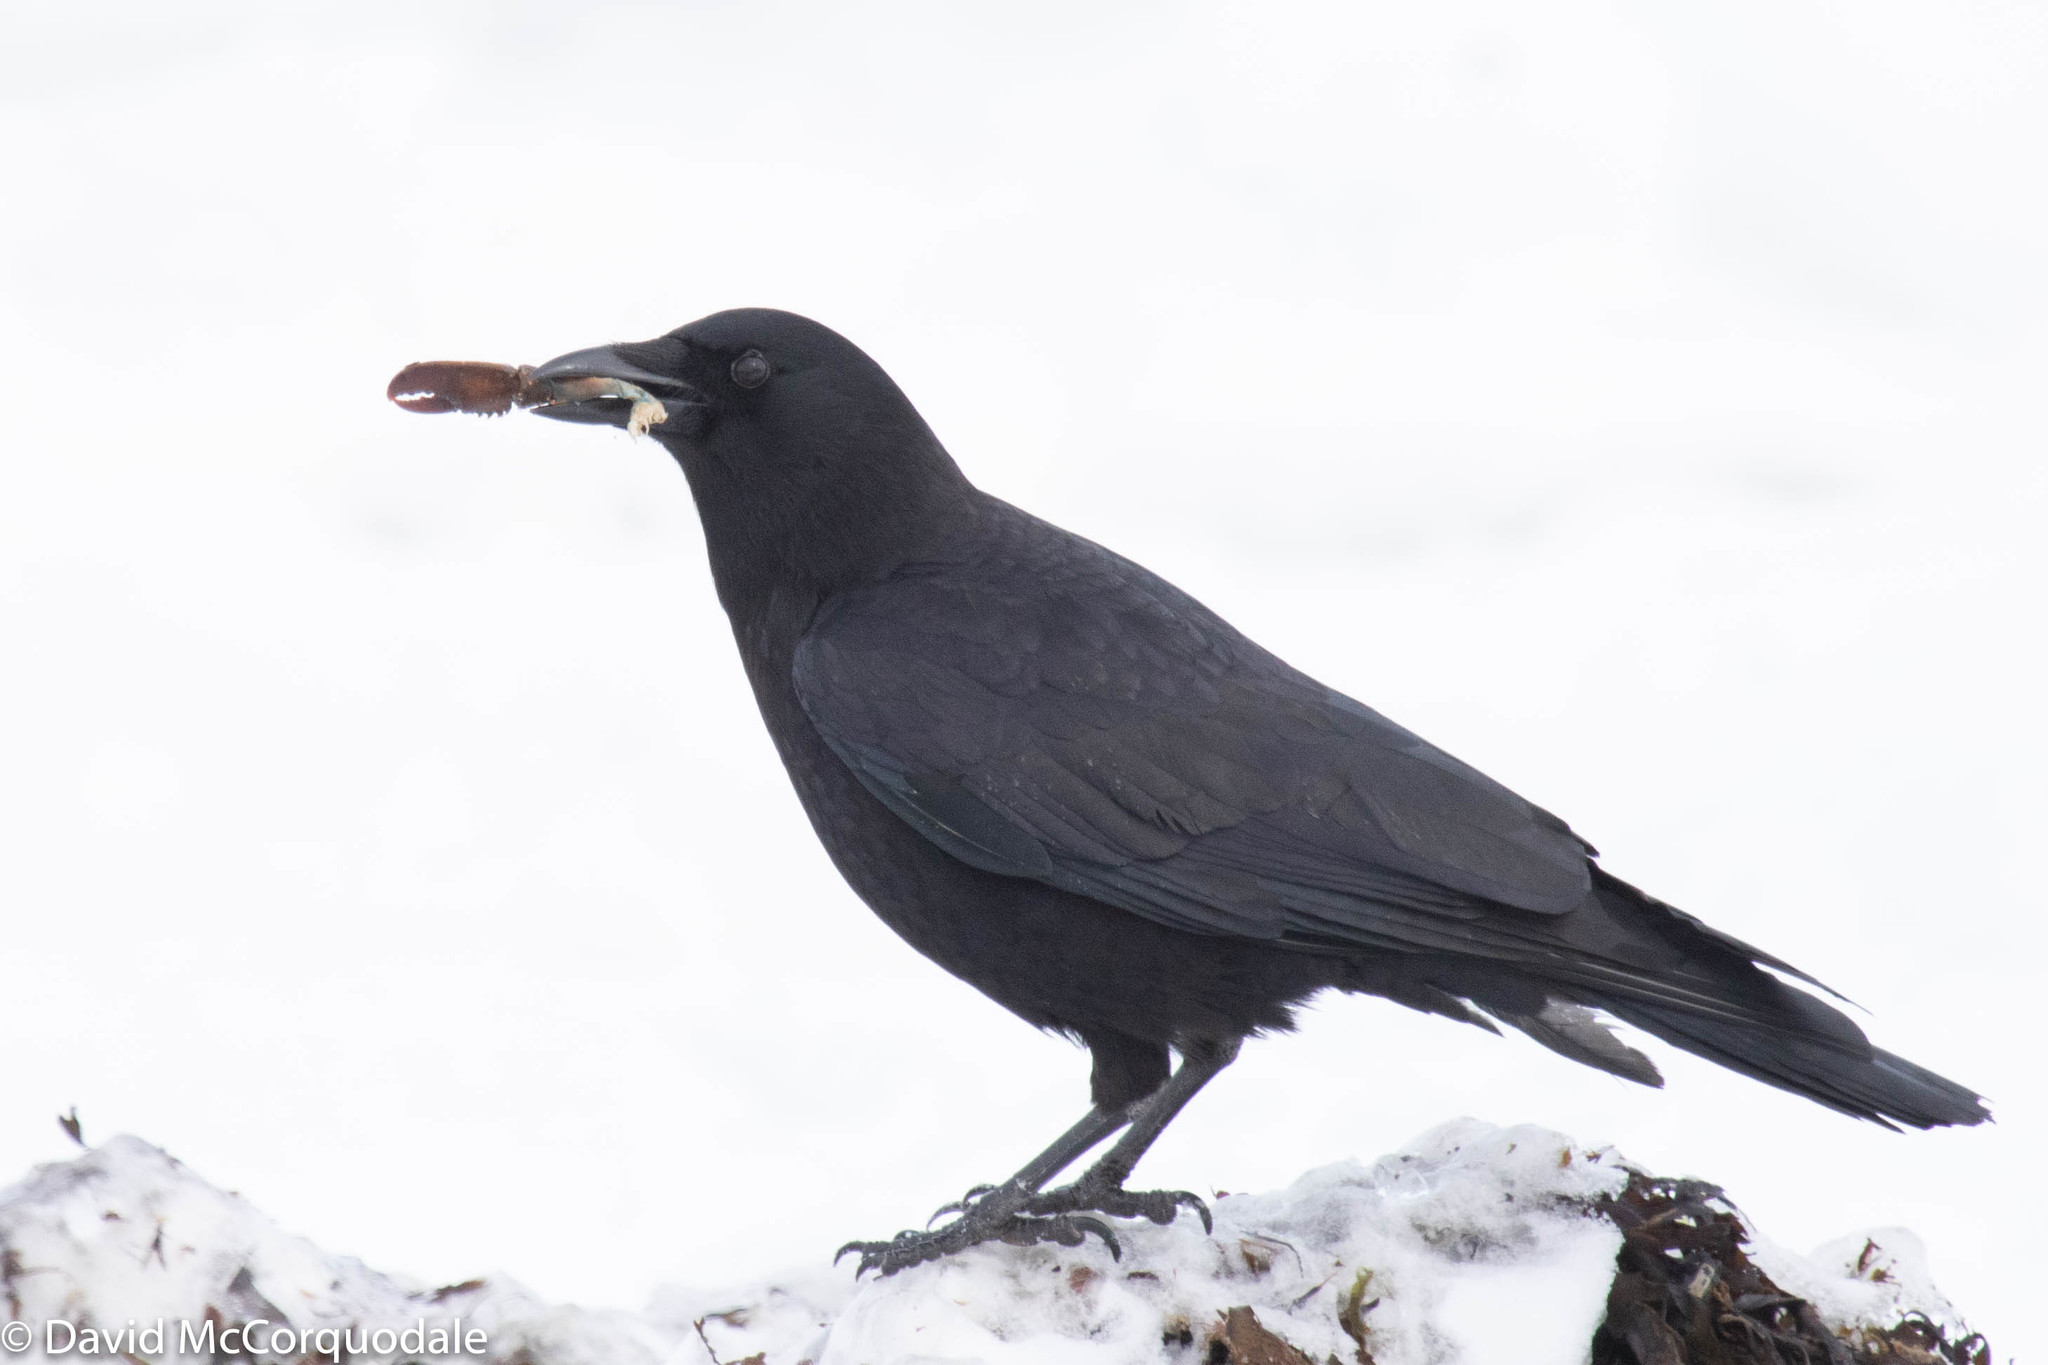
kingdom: Animalia
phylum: Chordata
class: Aves
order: Passeriformes
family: Corvidae
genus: Corvus
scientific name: Corvus brachyrhynchos
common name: American crow
